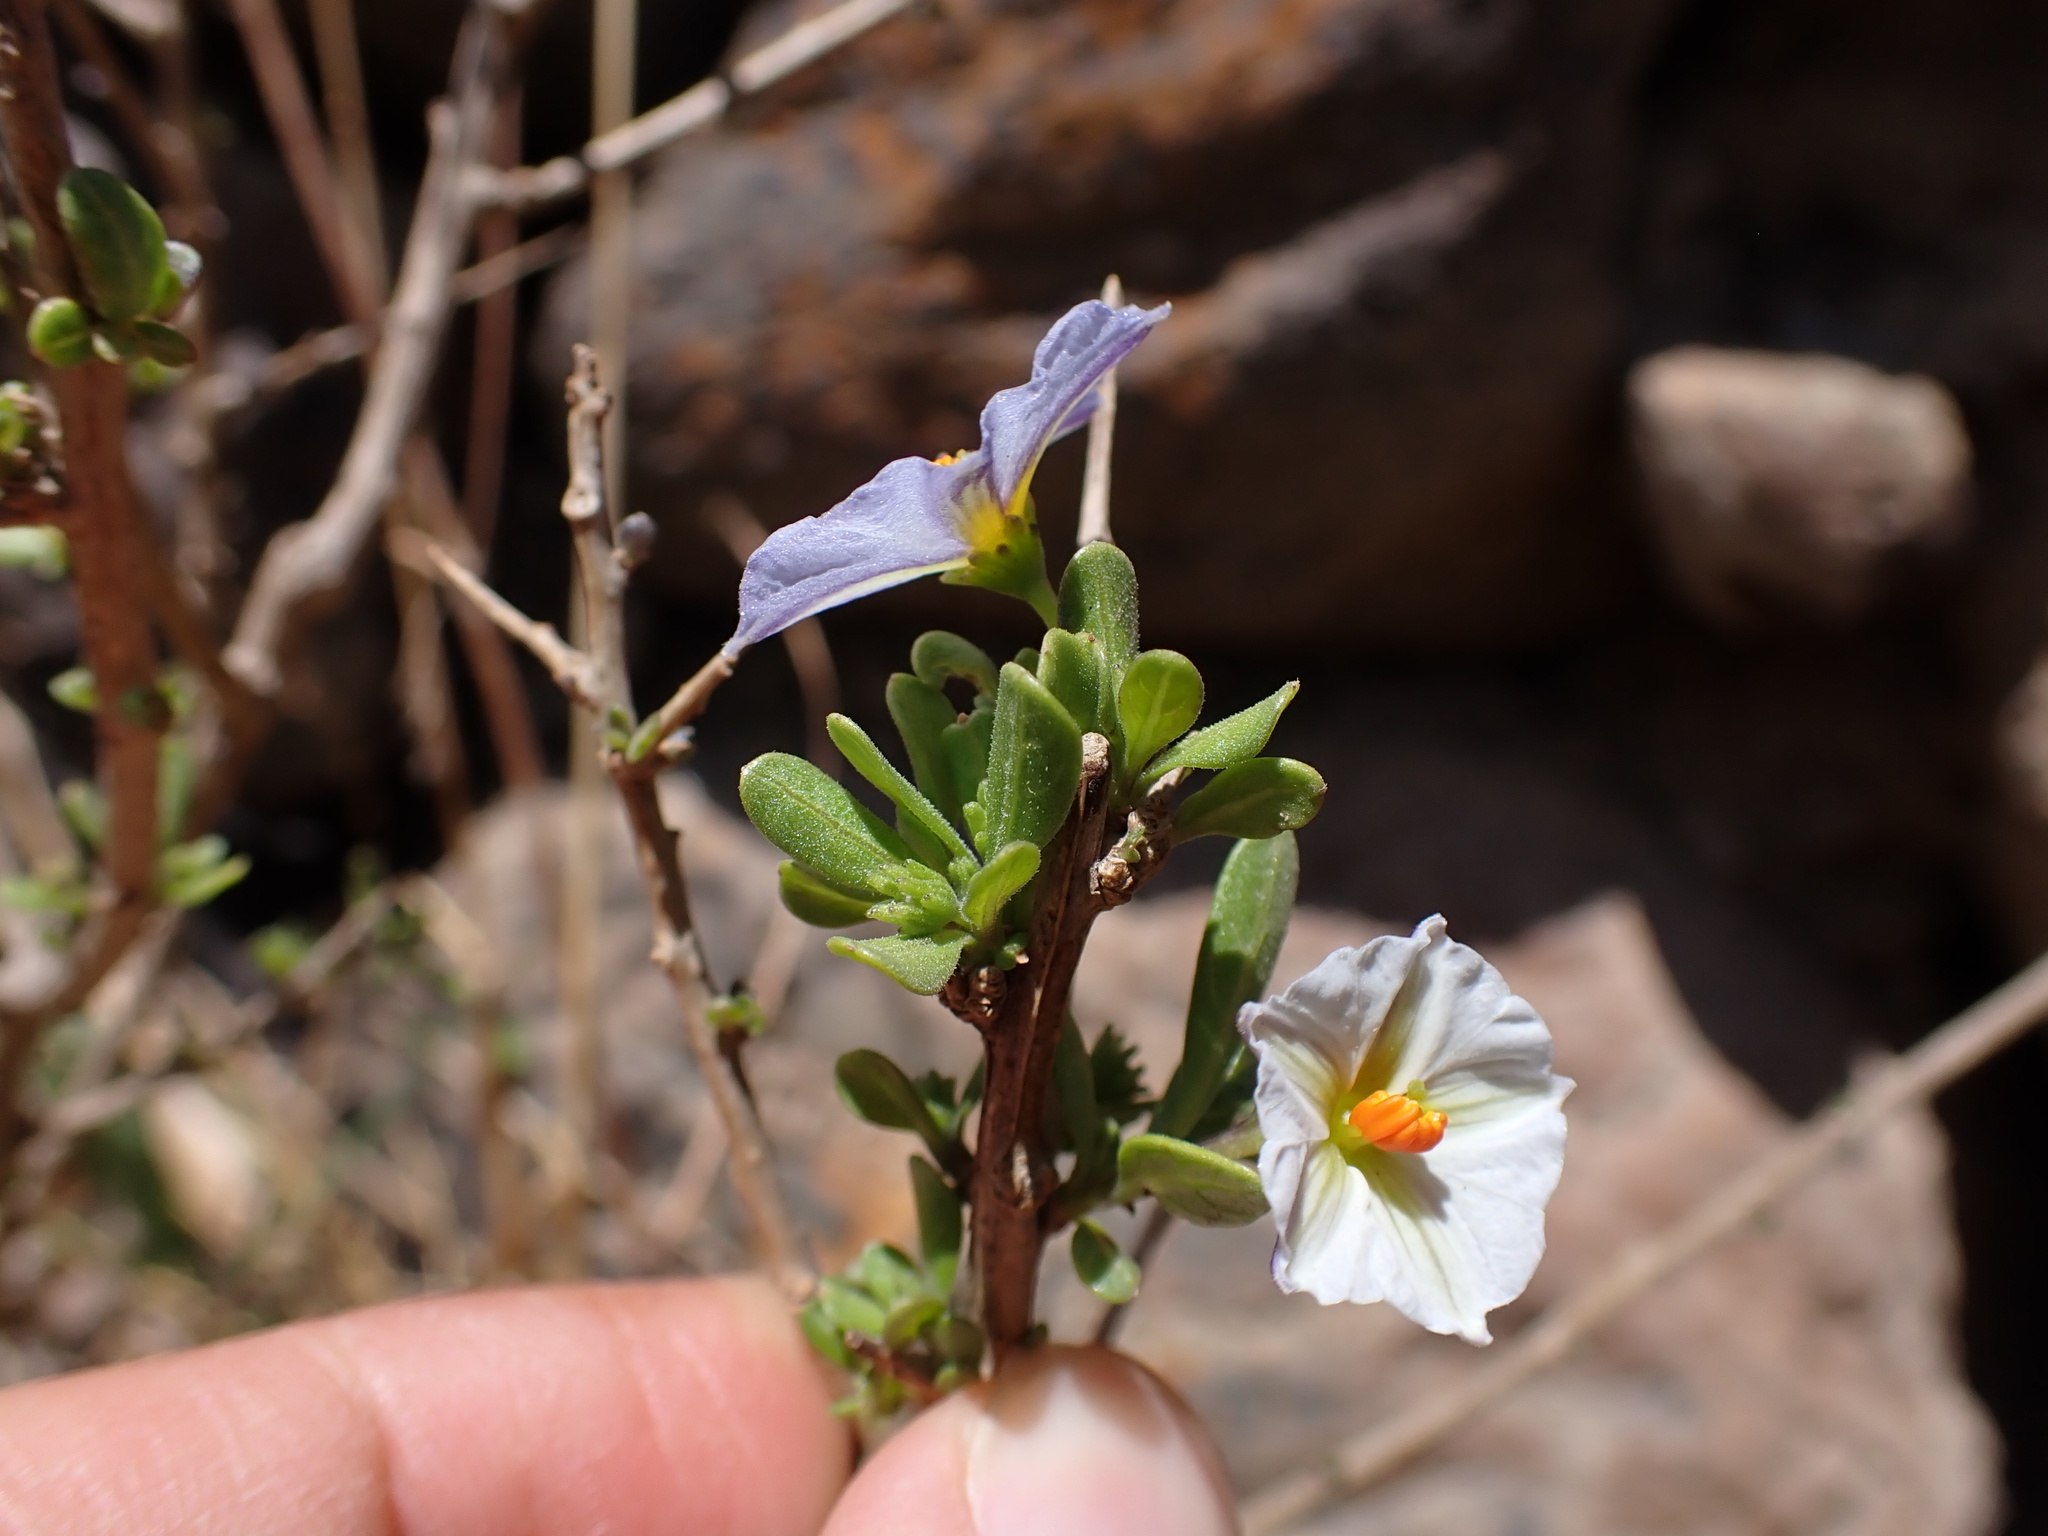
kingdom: Plantae
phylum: Tracheophyta
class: Magnoliopsida
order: Solanales
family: Solanaceae
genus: Lycianthes
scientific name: Lycianthes lycioides
